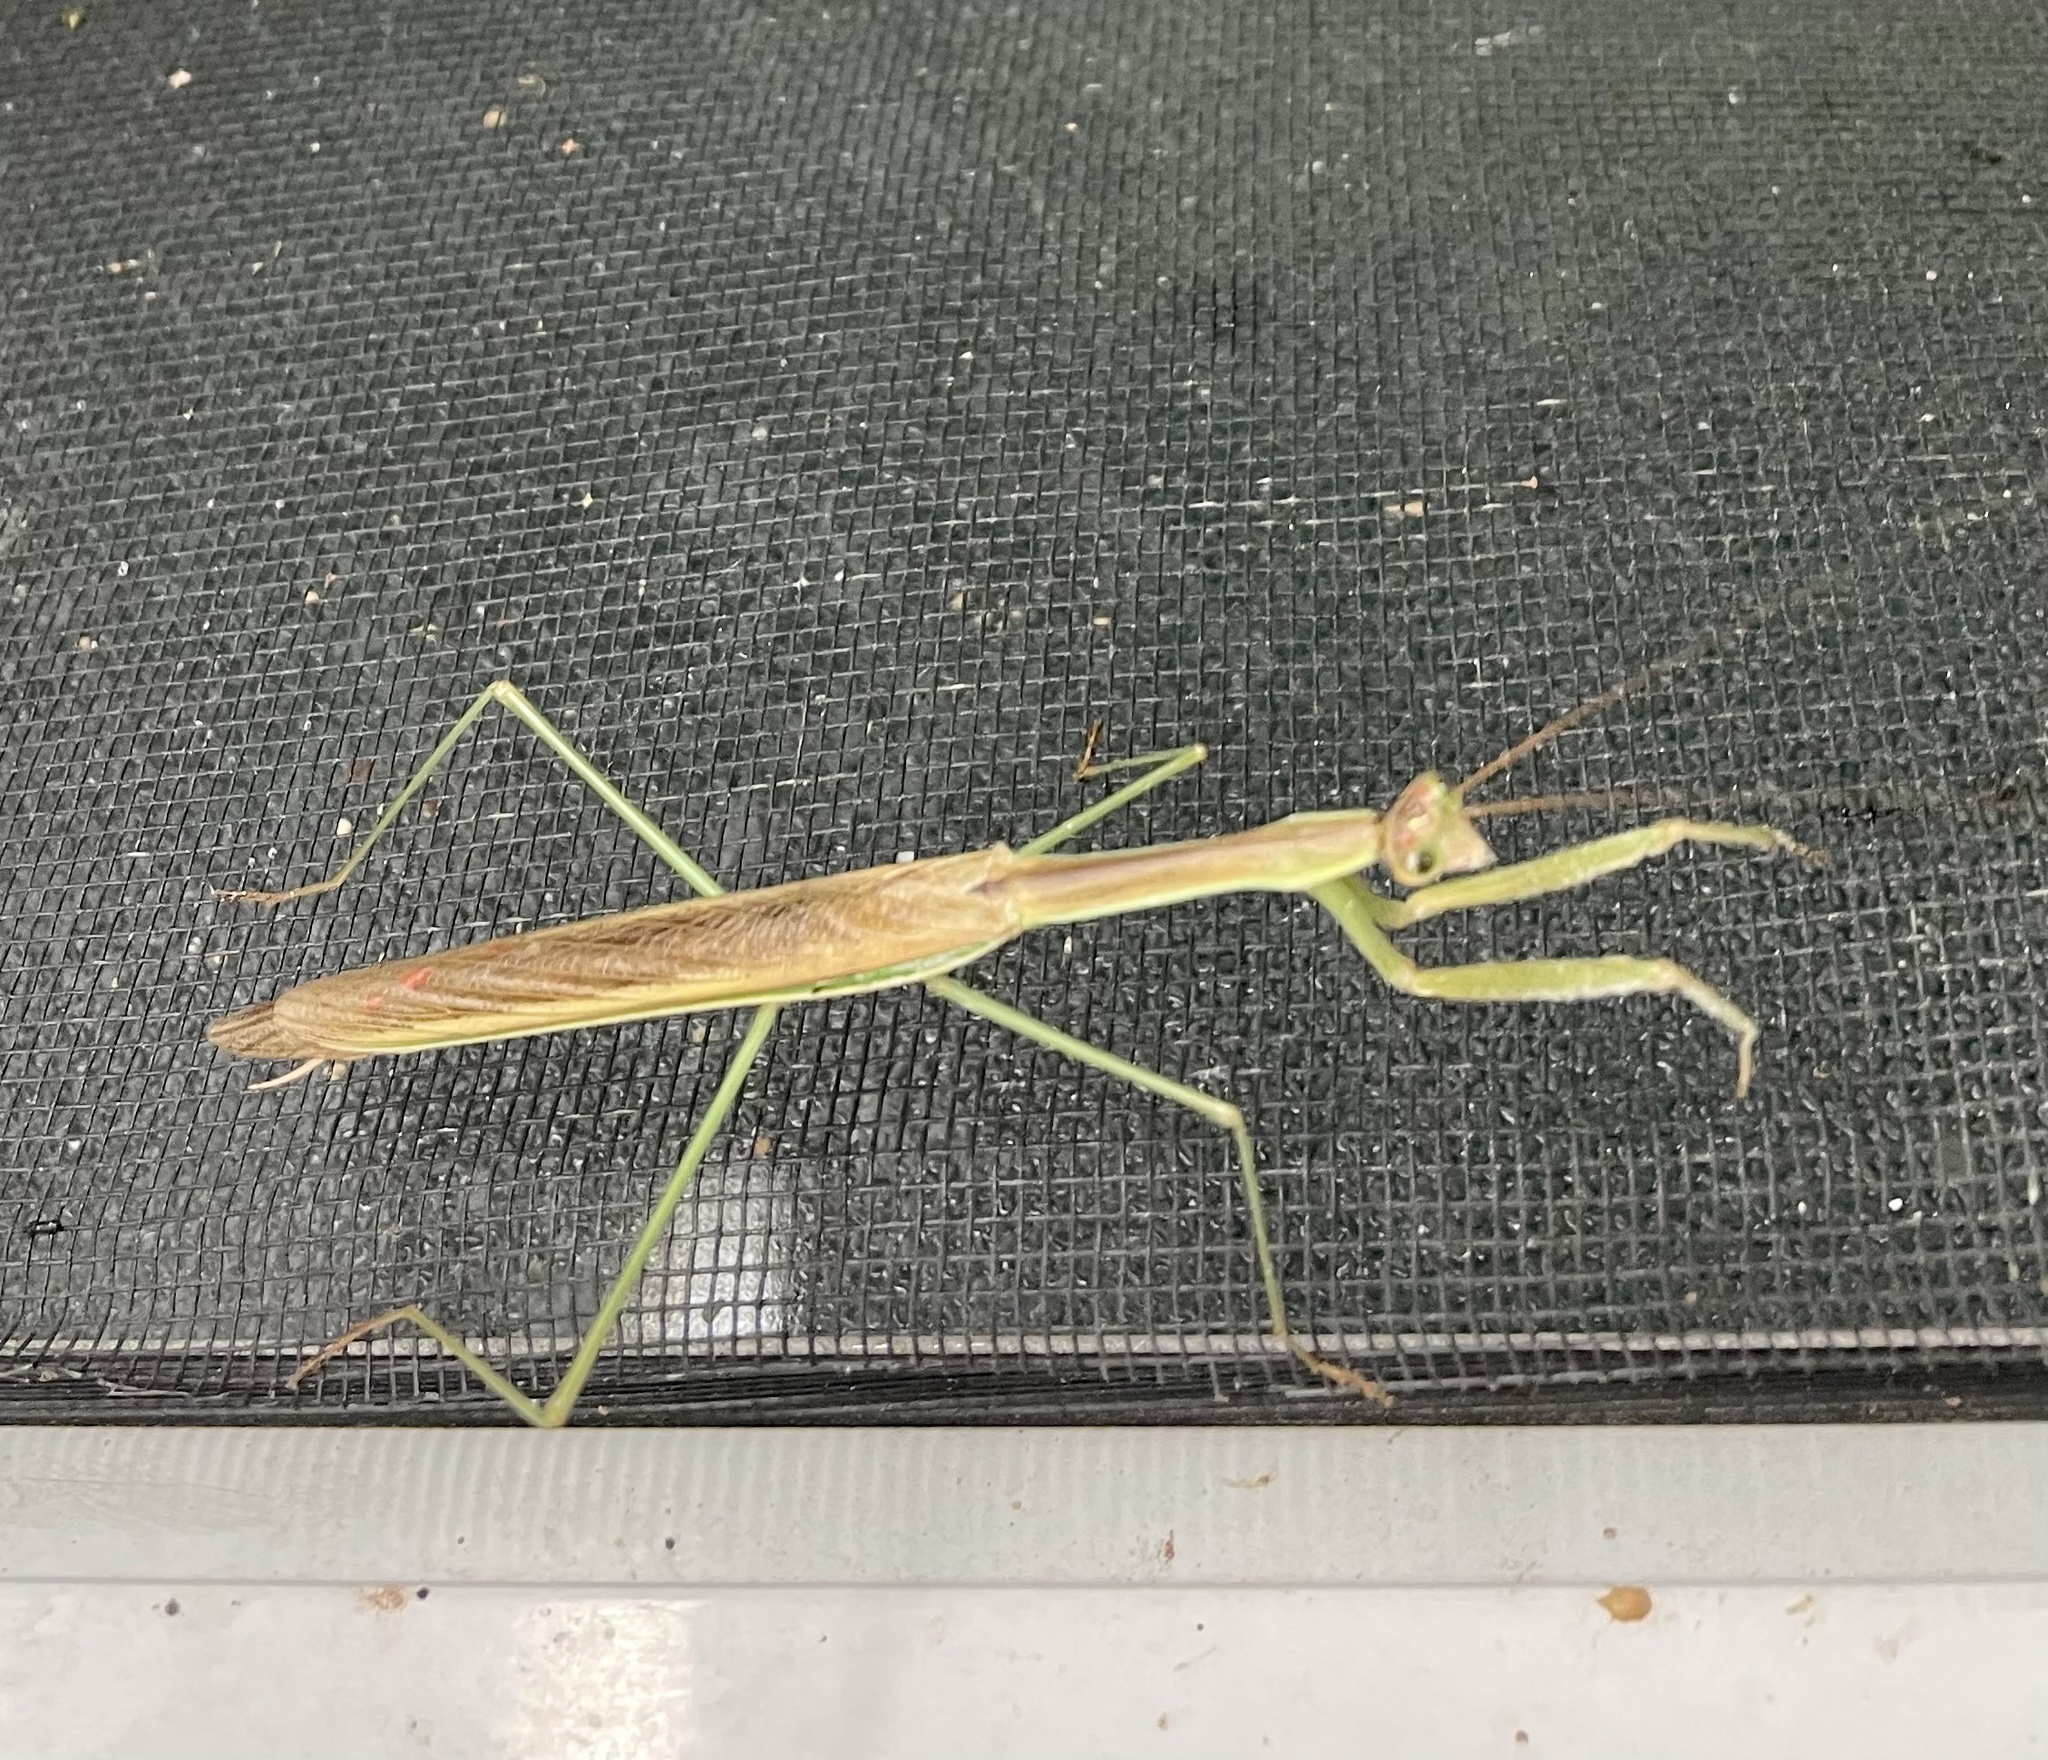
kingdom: Animalia
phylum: Arthropoda
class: Insecta
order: Mantodea
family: Mantidae
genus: Tenodera
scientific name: Tenodera australasiae
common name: Purple-winged mantis
